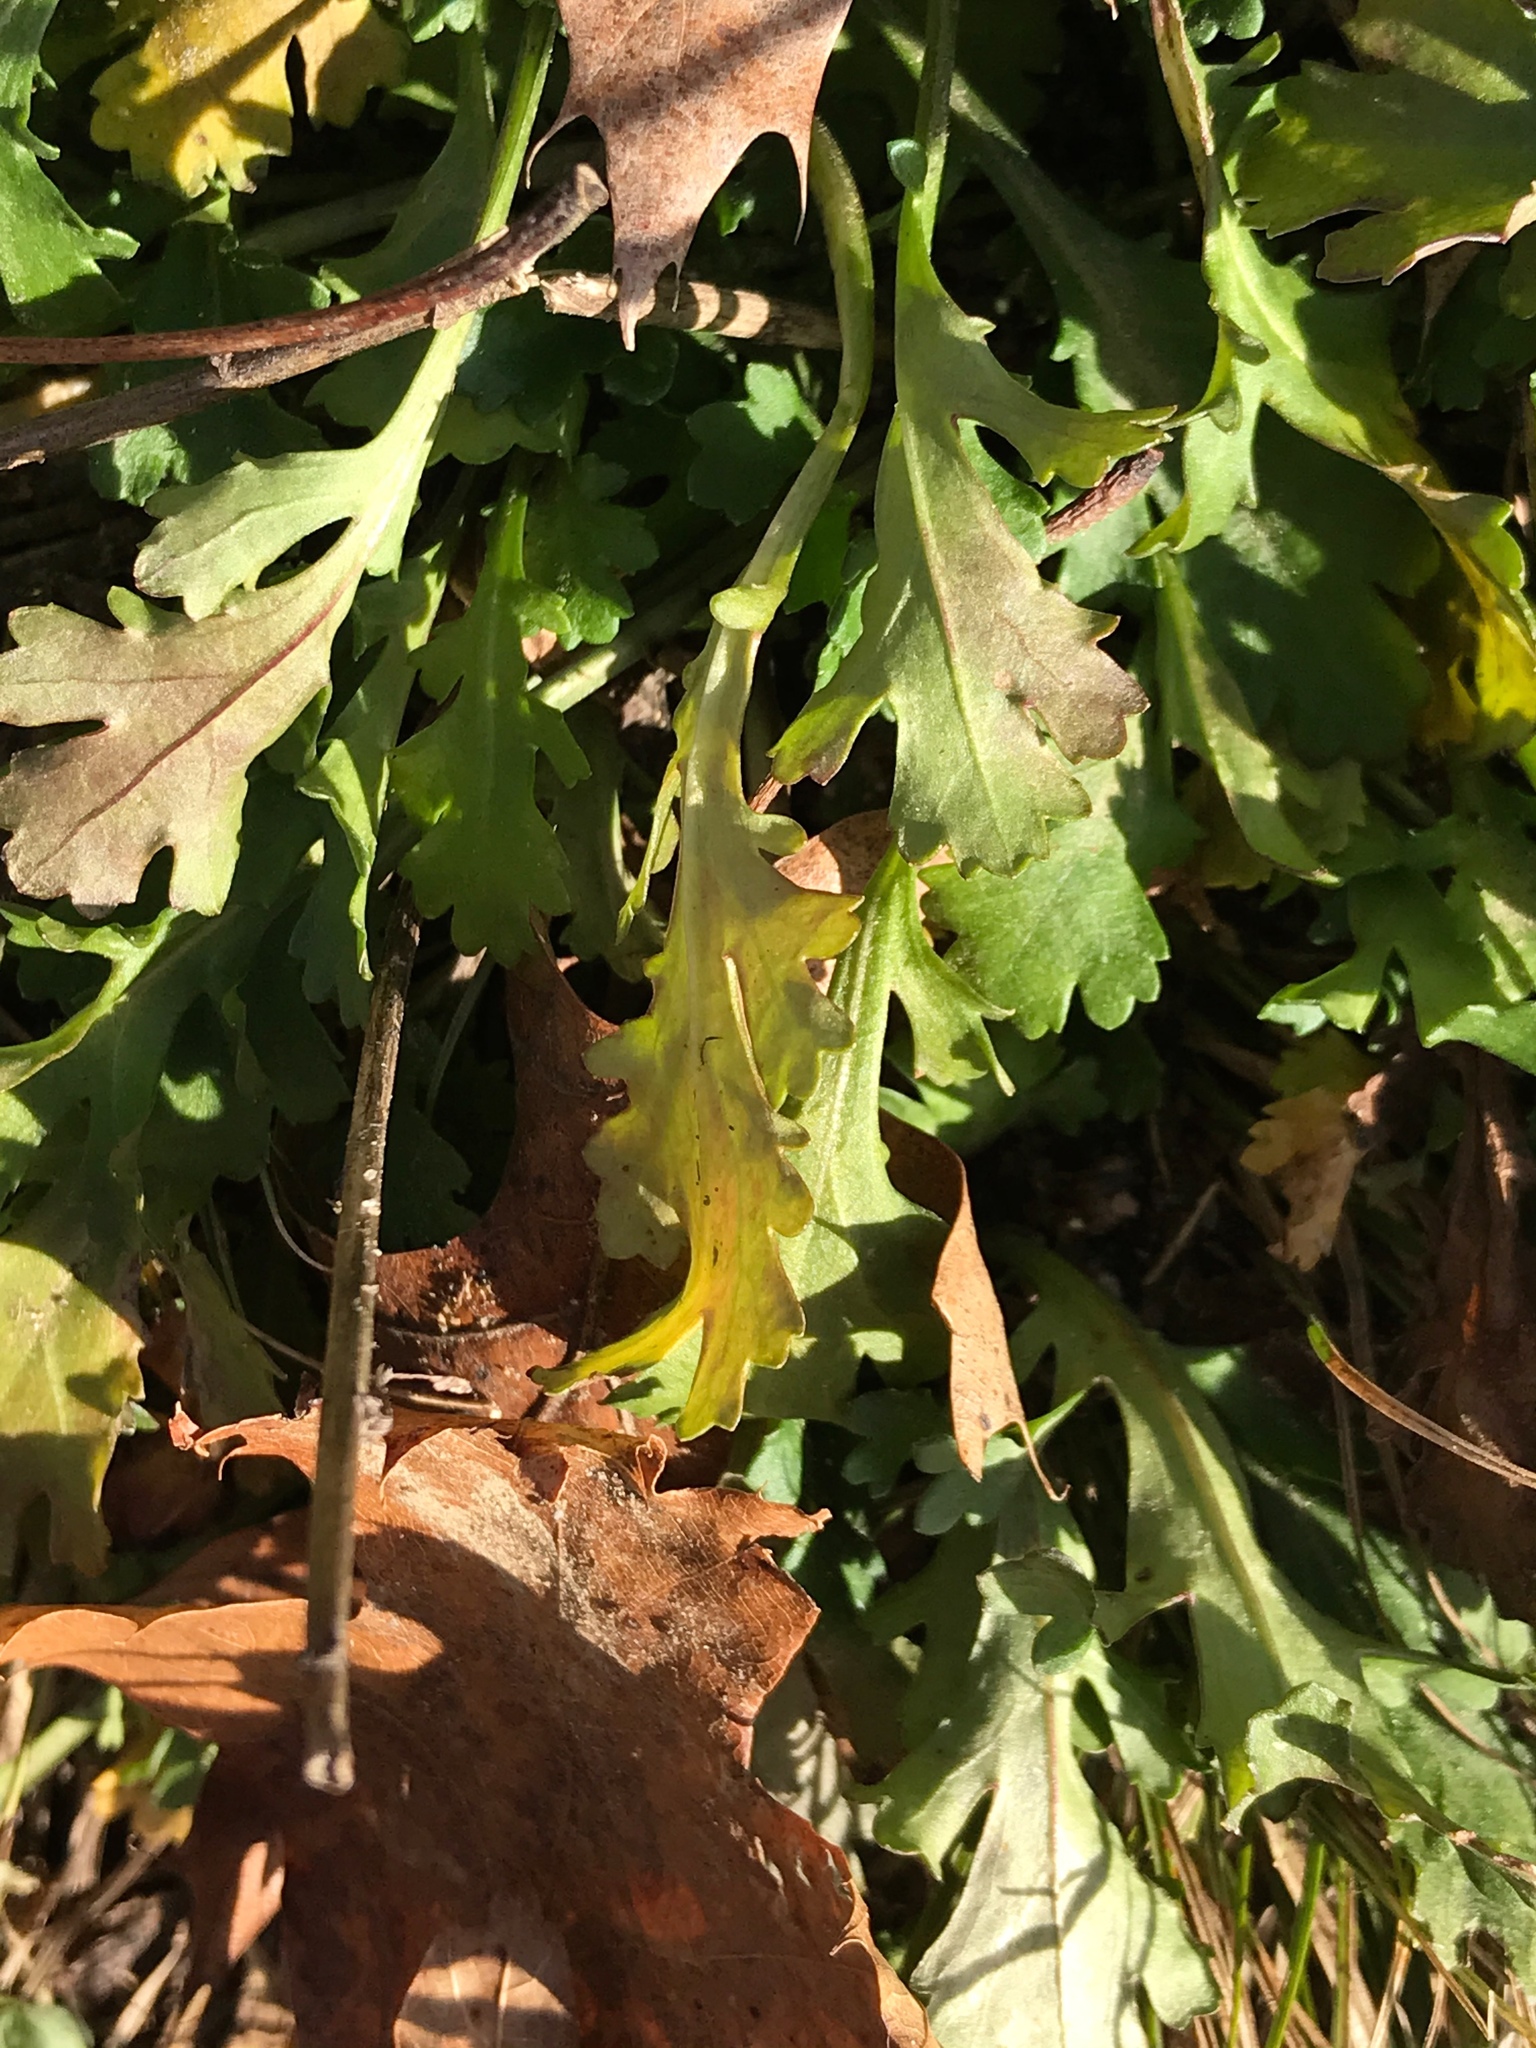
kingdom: Plantae
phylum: Tracheophyta
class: Magnoliopsida
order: Asterales
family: Asteraceae
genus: Leucanthemum
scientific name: Leucanthemum vulgare
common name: Oxeye daisy
